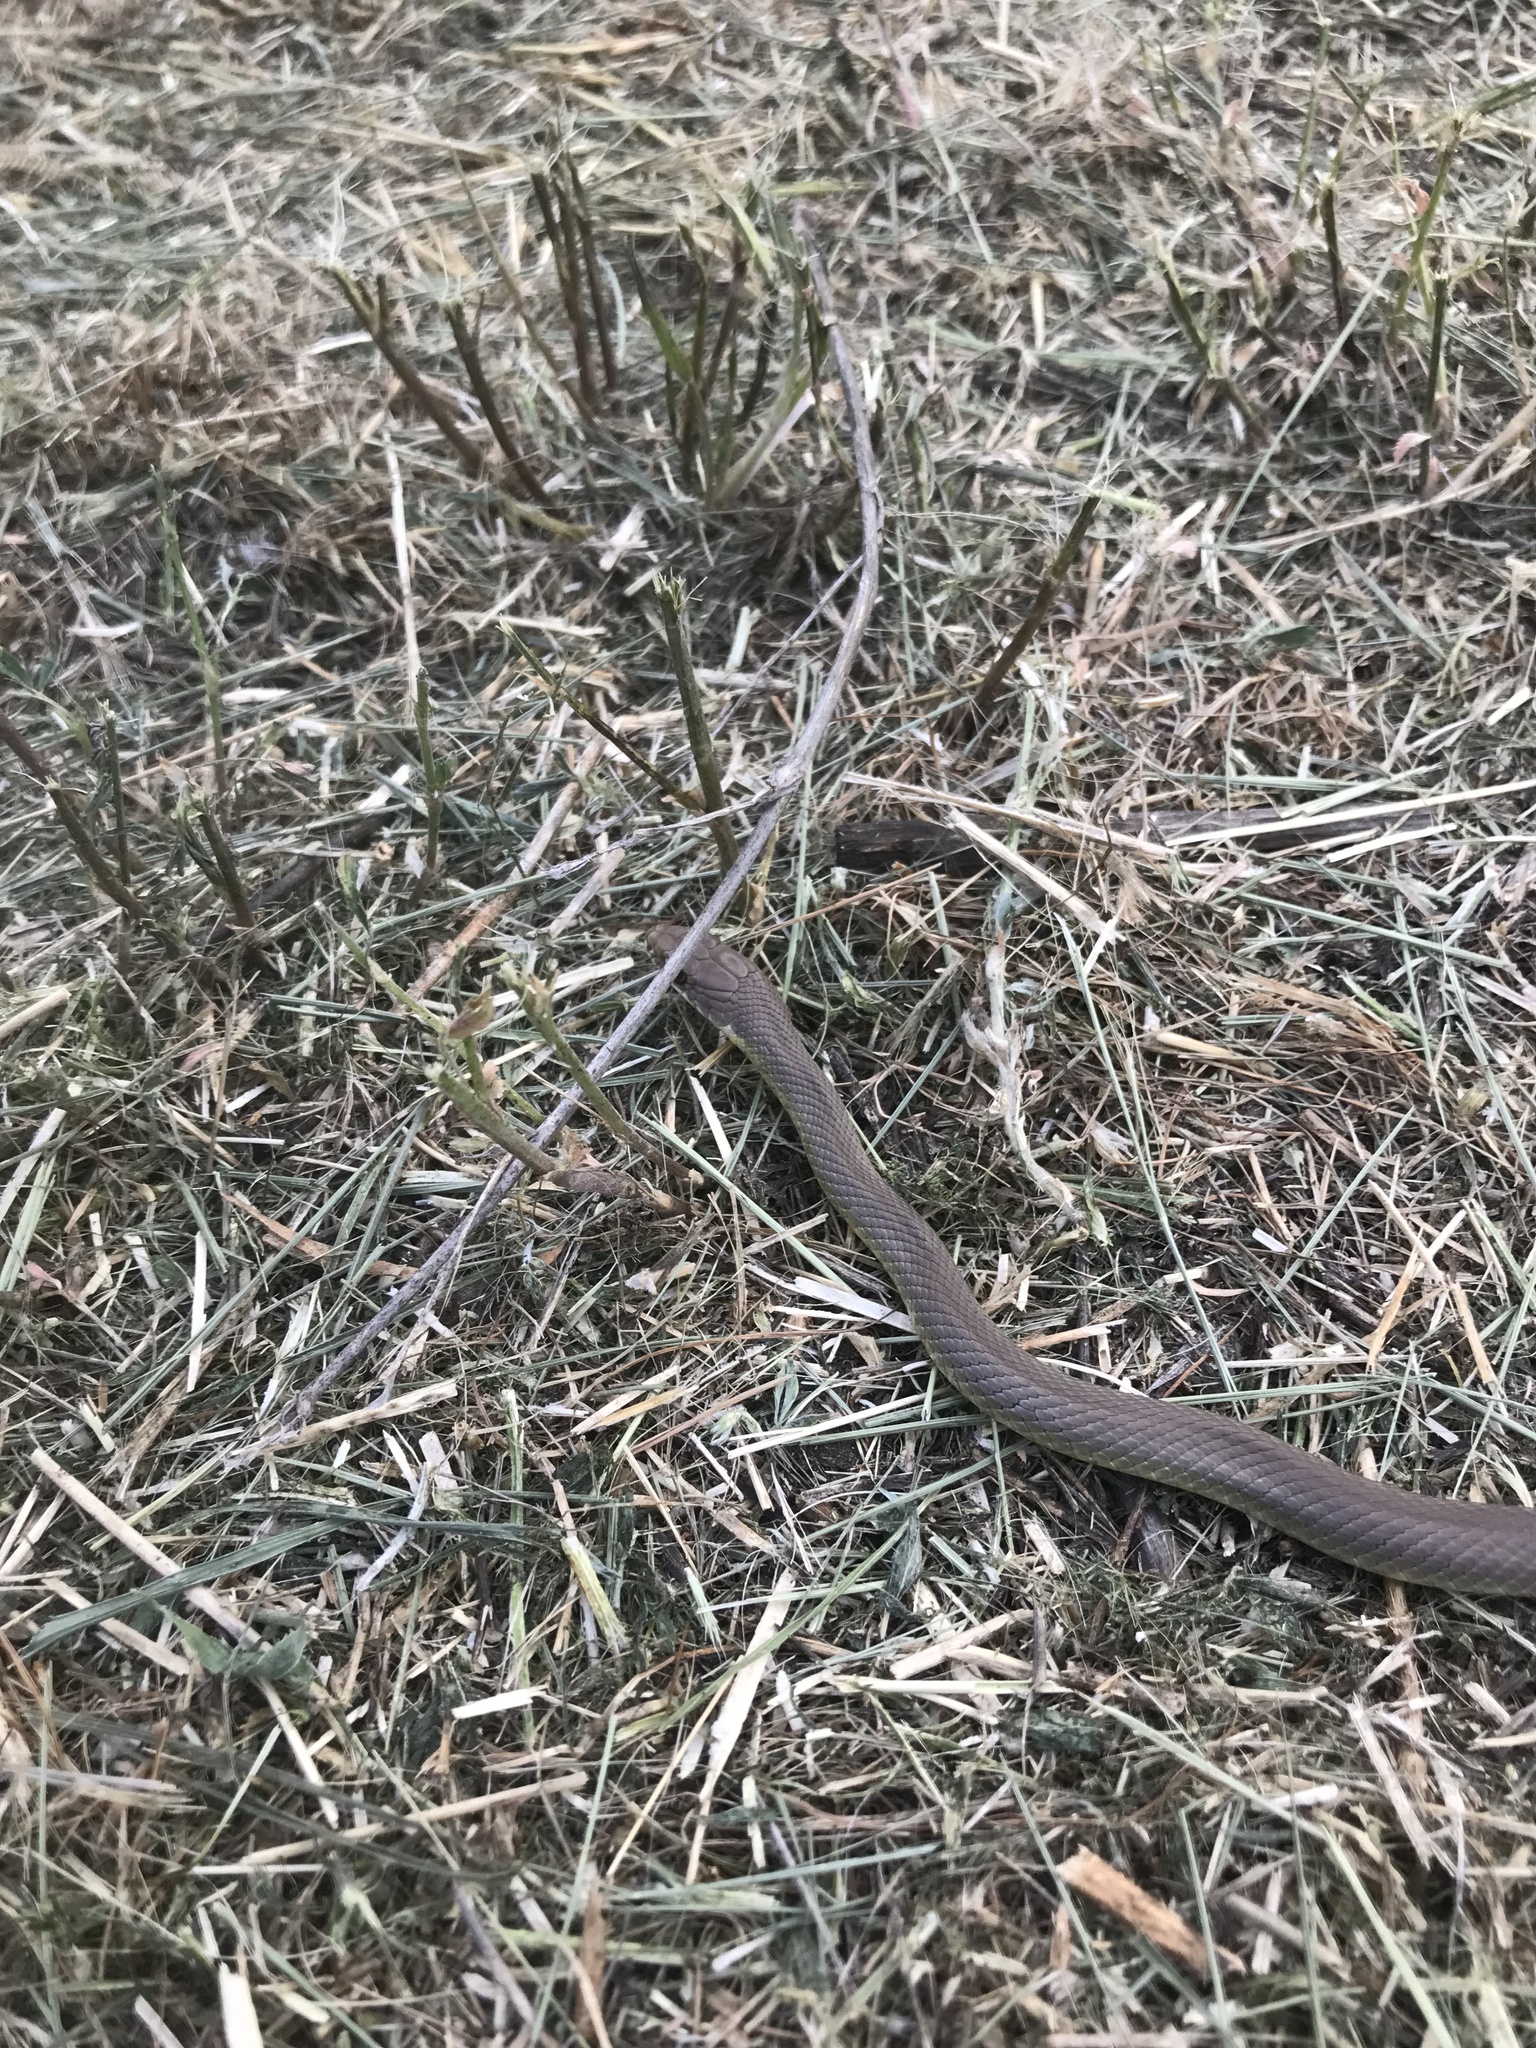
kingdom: Animalia
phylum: Chordata
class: Squamata
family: Colubridae
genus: Coluber
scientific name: Coluber constrictor
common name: Eastern racer
